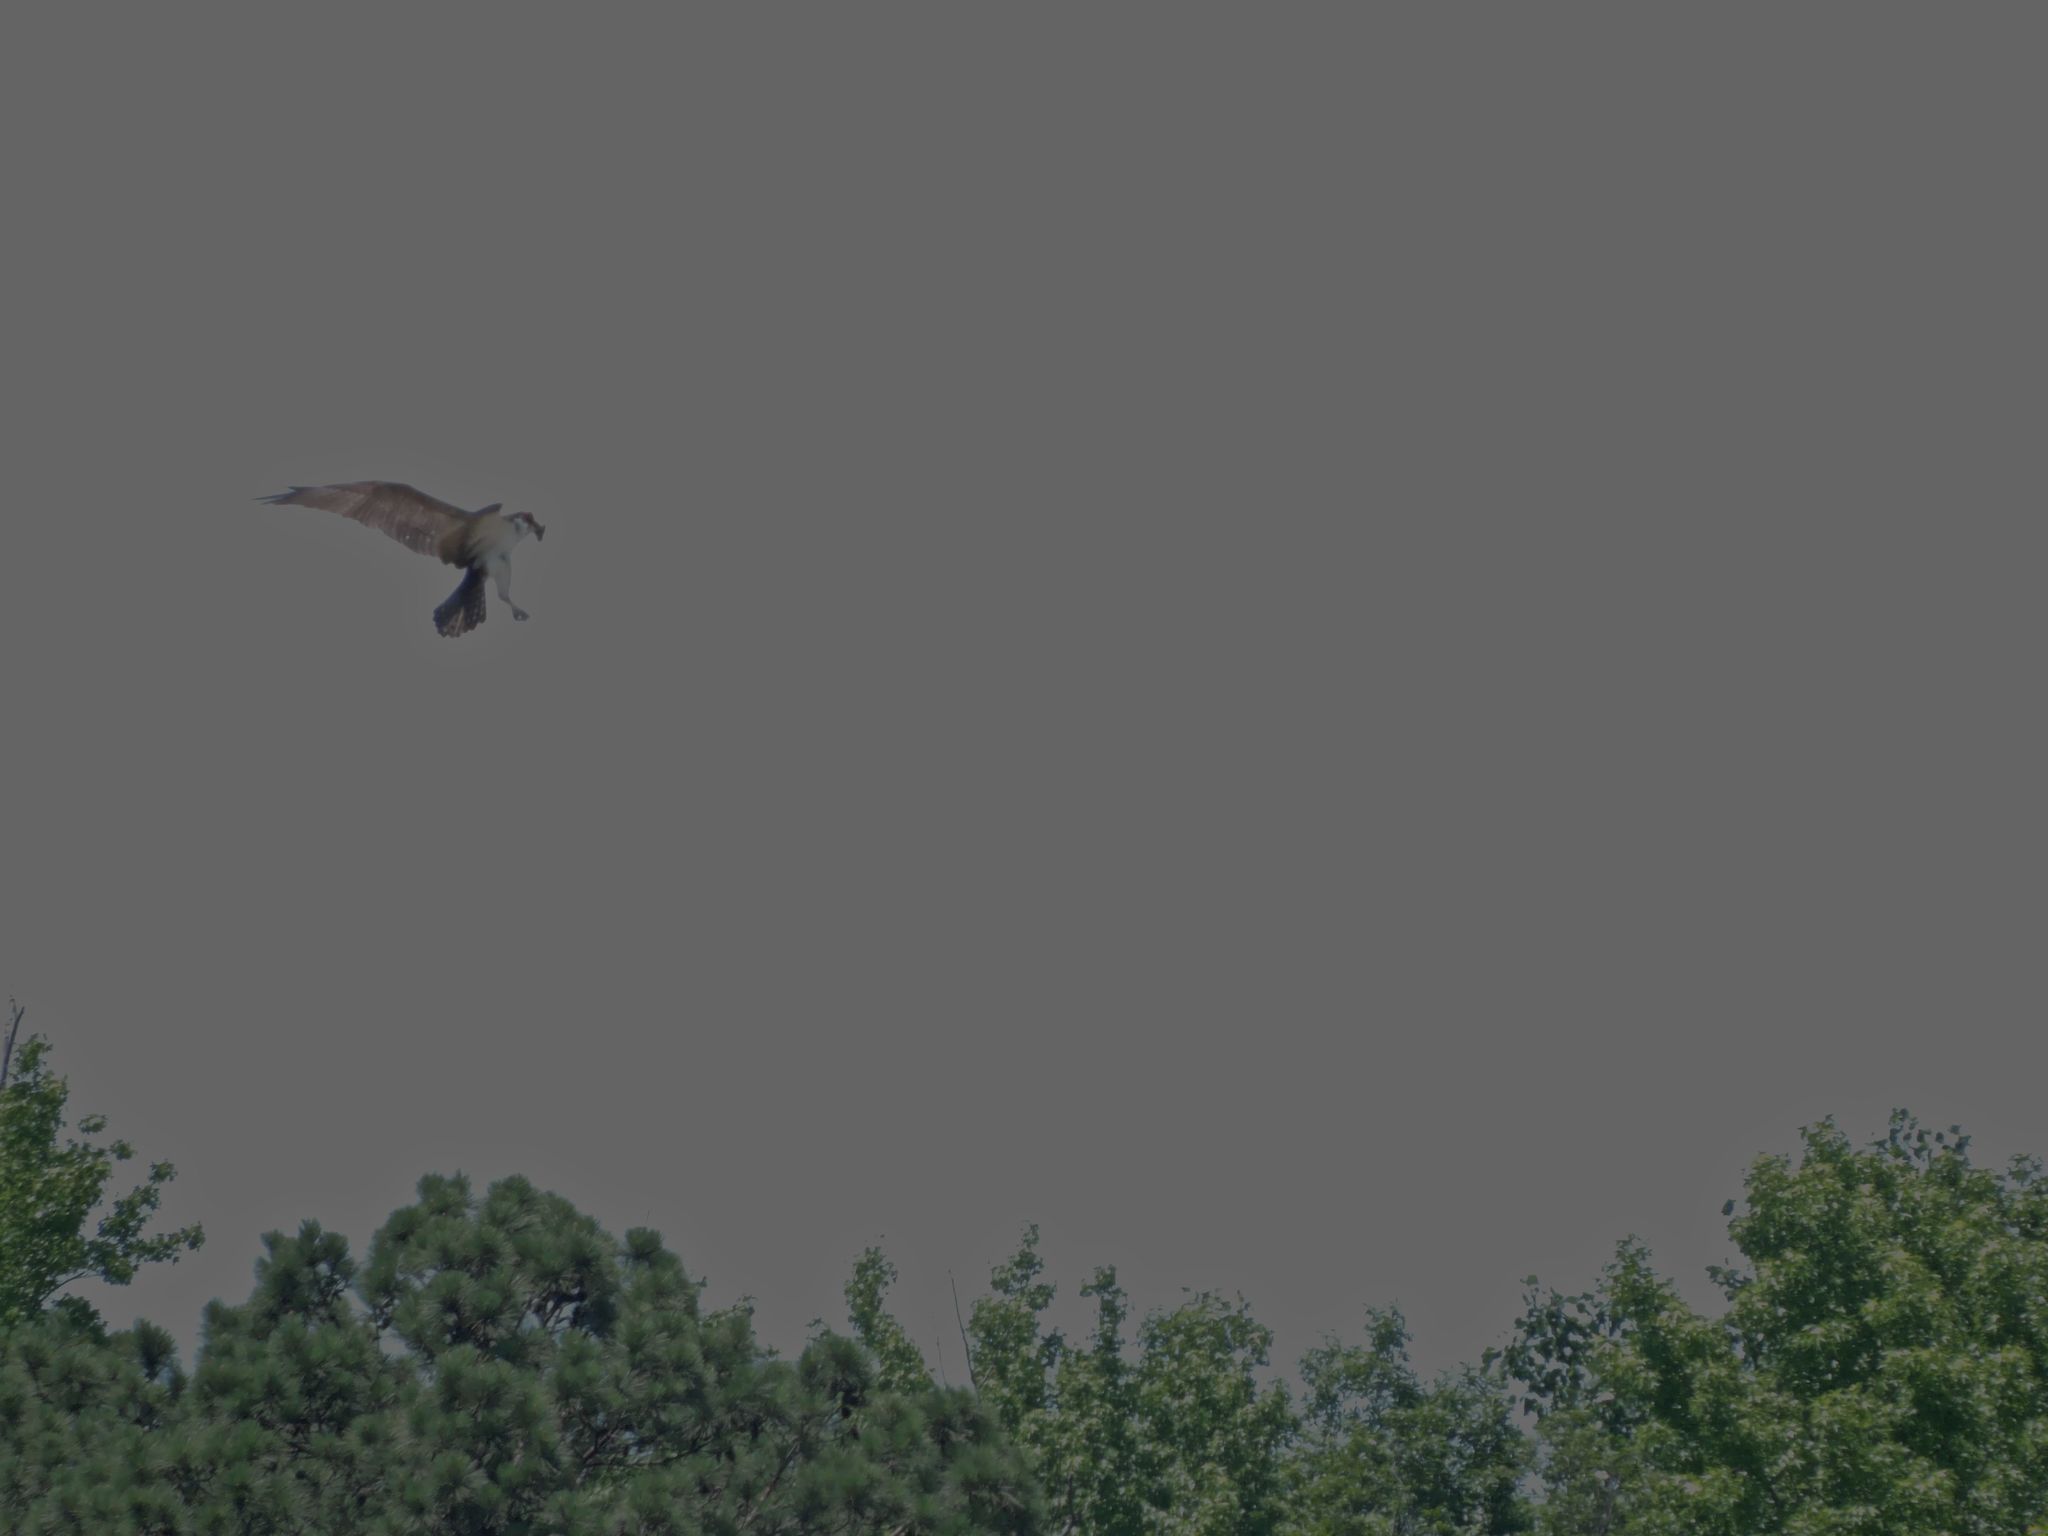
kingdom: Animalia
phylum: Chordata
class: Aves
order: Accipitriformes
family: Pandionidae
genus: Pandion
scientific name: Pandion haliaetus
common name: Osprey
